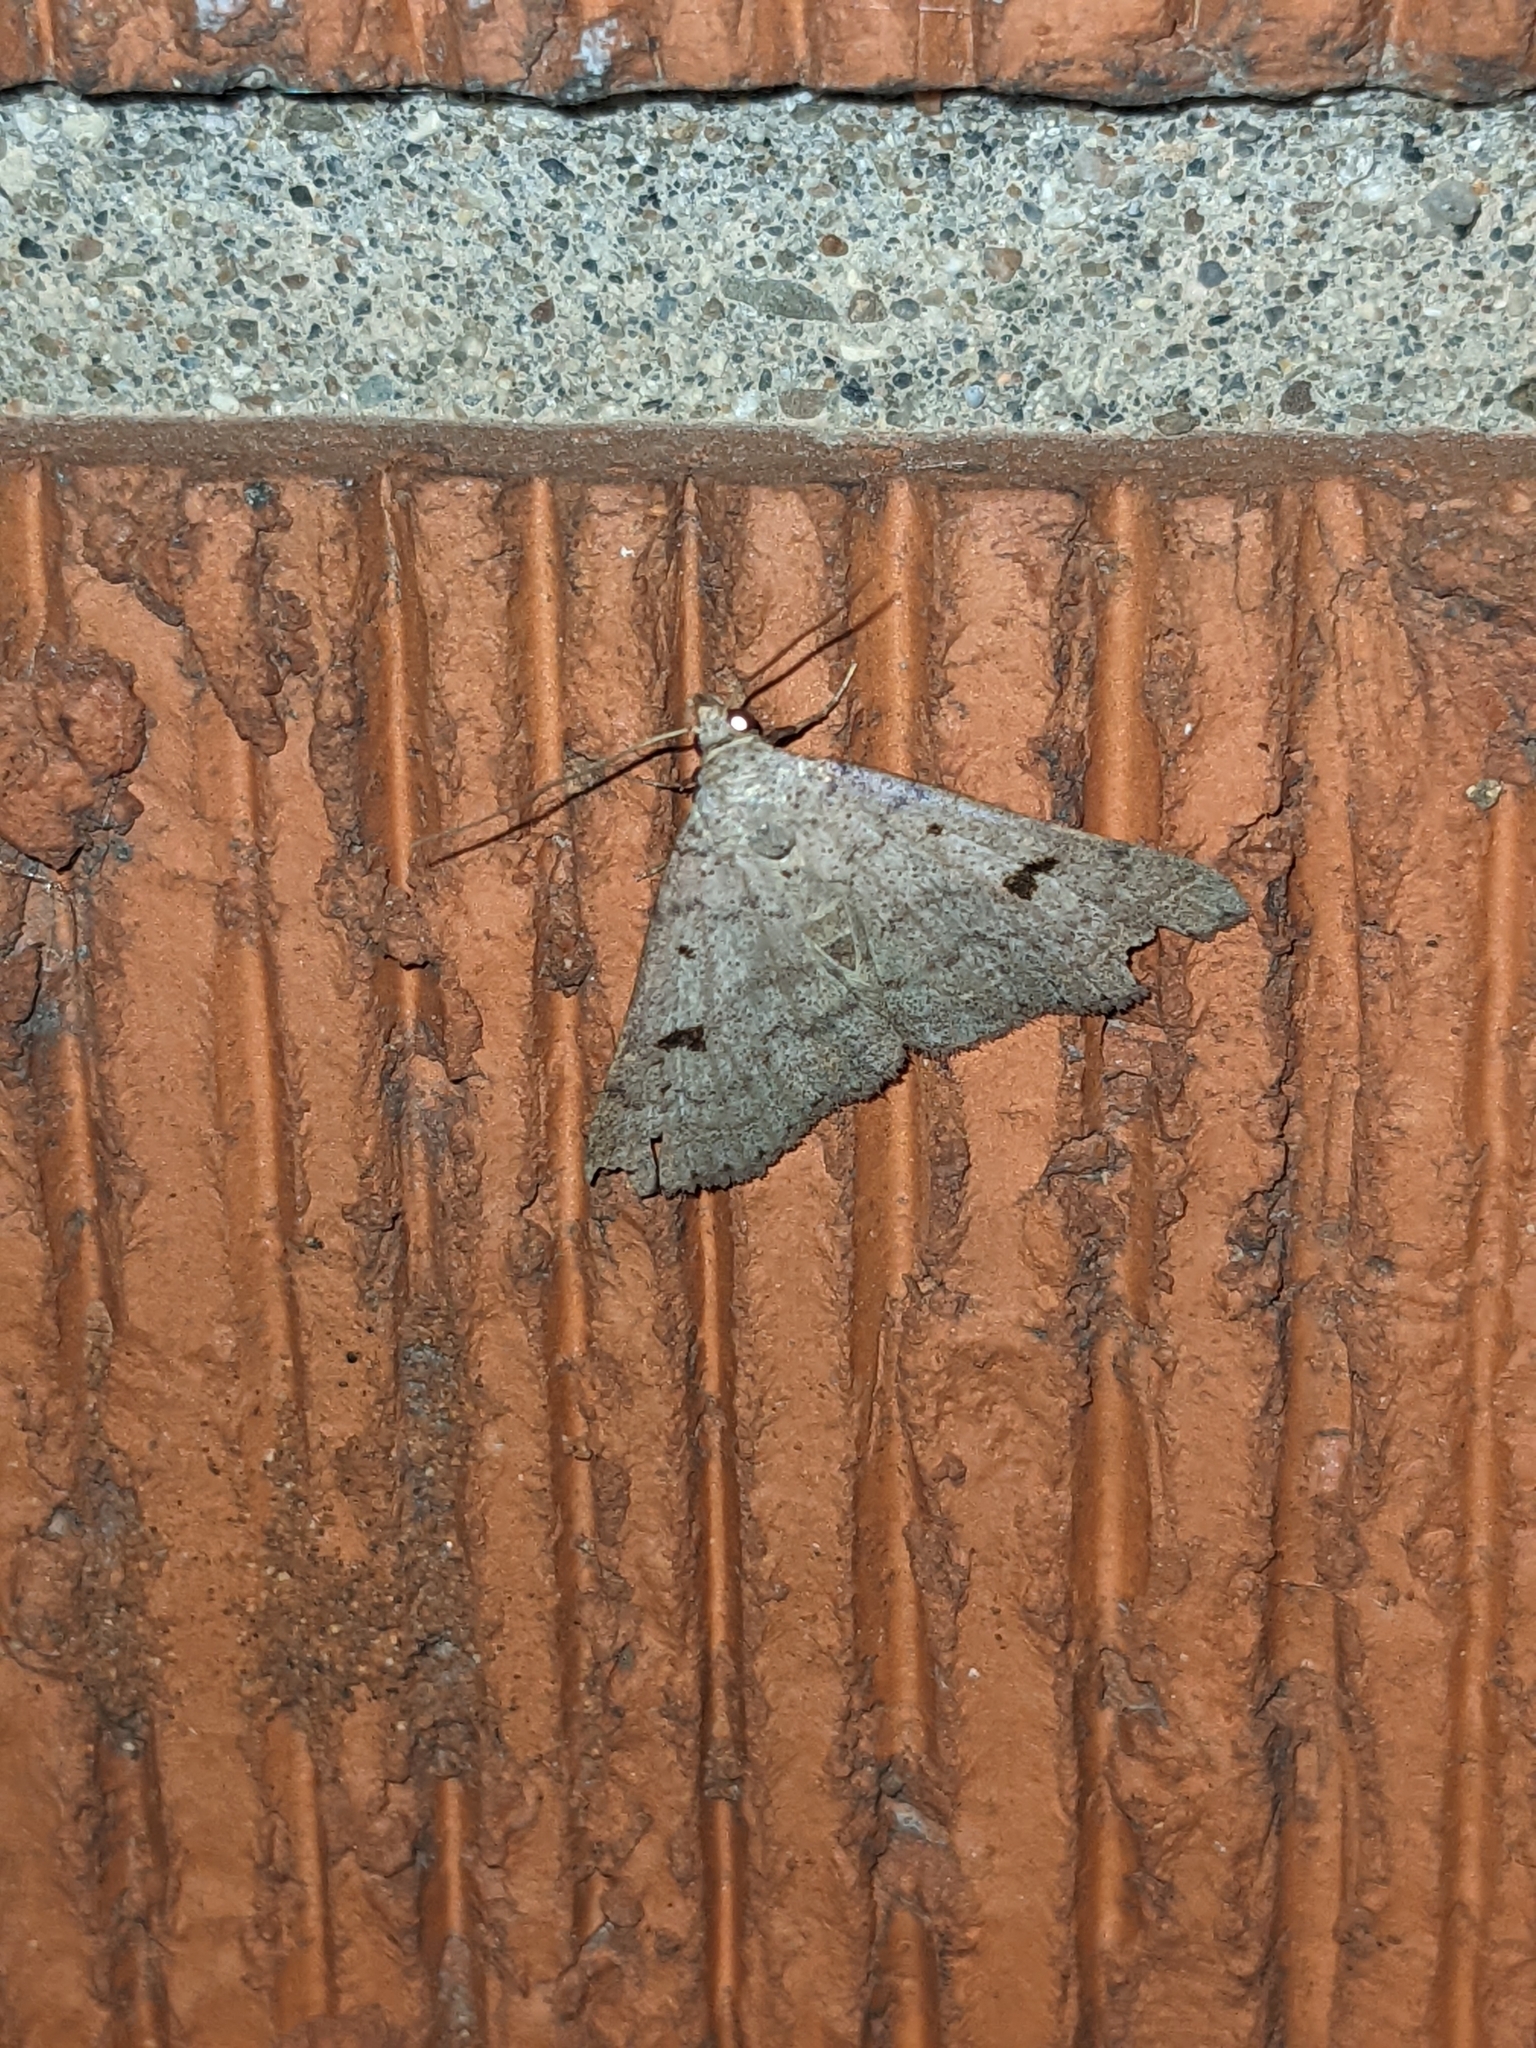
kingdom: Animalia
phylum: Arthropoda
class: Insecta
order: Lepidoptera
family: Erebidae
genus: Bleptina
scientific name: Bleptina caradrinalis
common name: Bent-winged owlet
